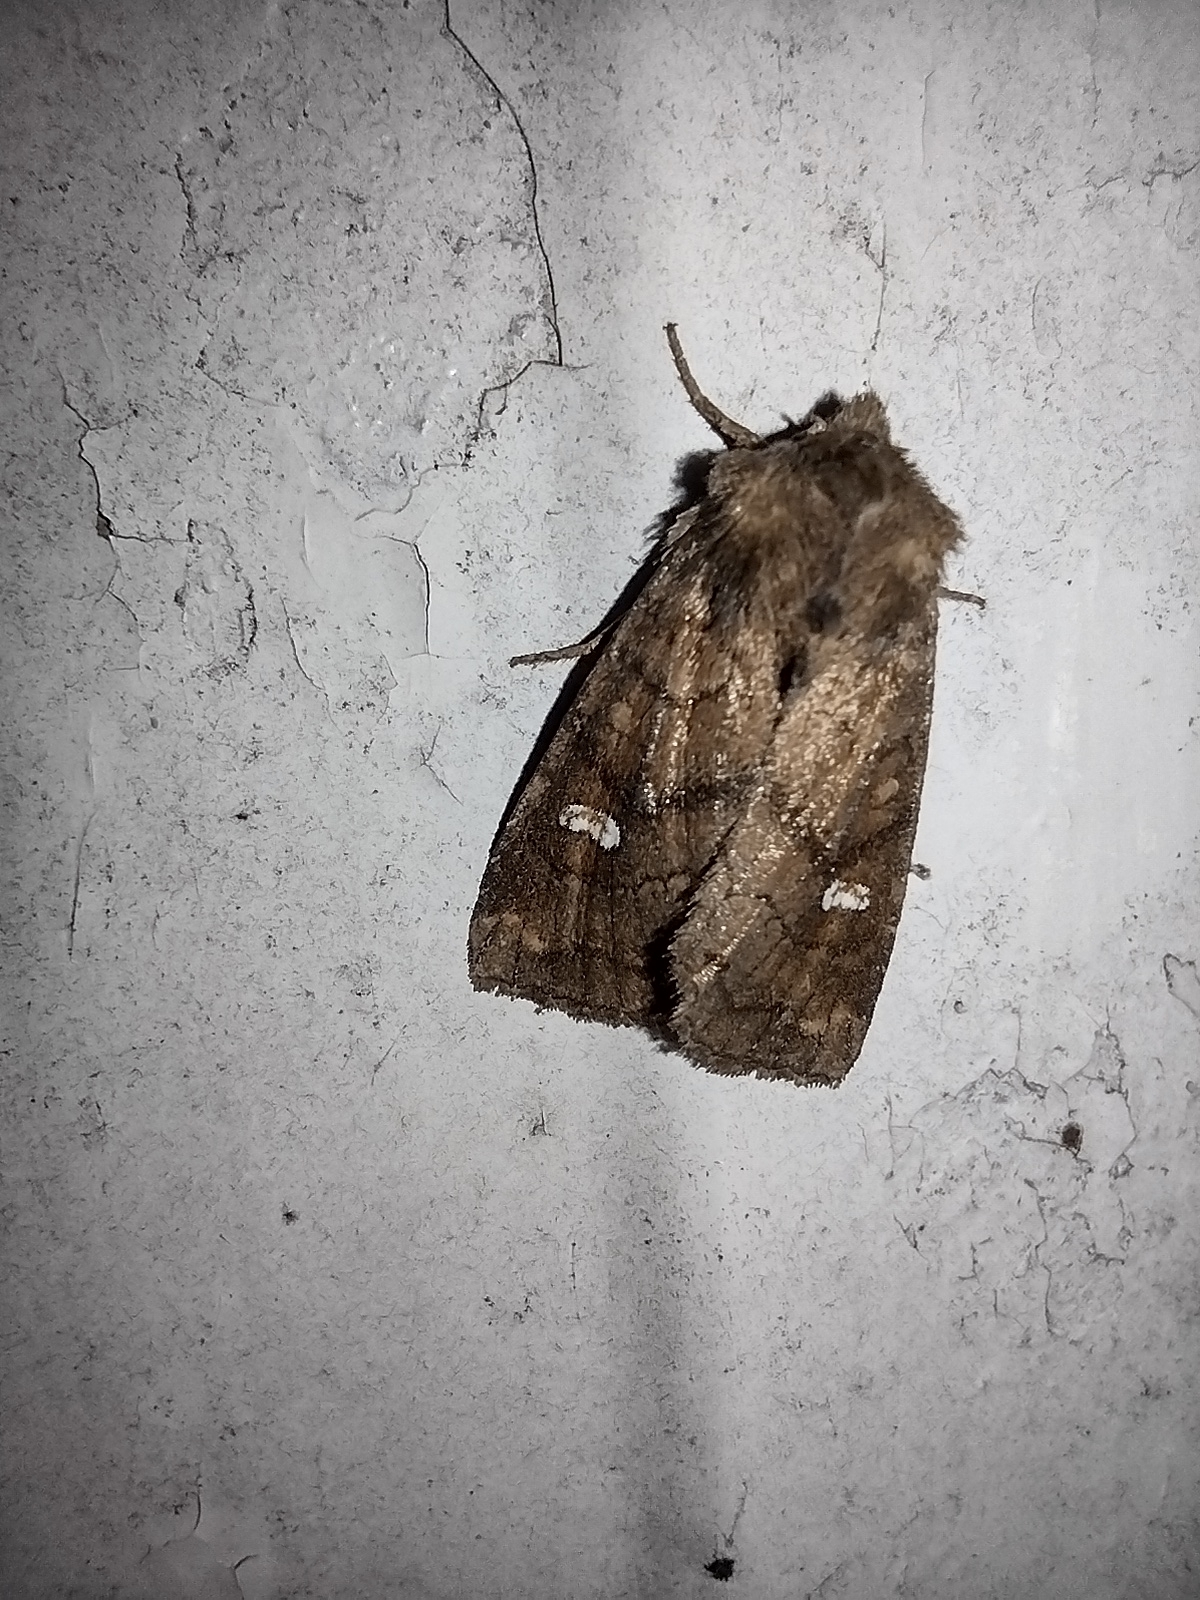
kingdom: Animalia
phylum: Arthropoda
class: Insecta
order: Lepidoptera
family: Noctuidae
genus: Tricholita
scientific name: Tricholita signata
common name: Signate quaker
